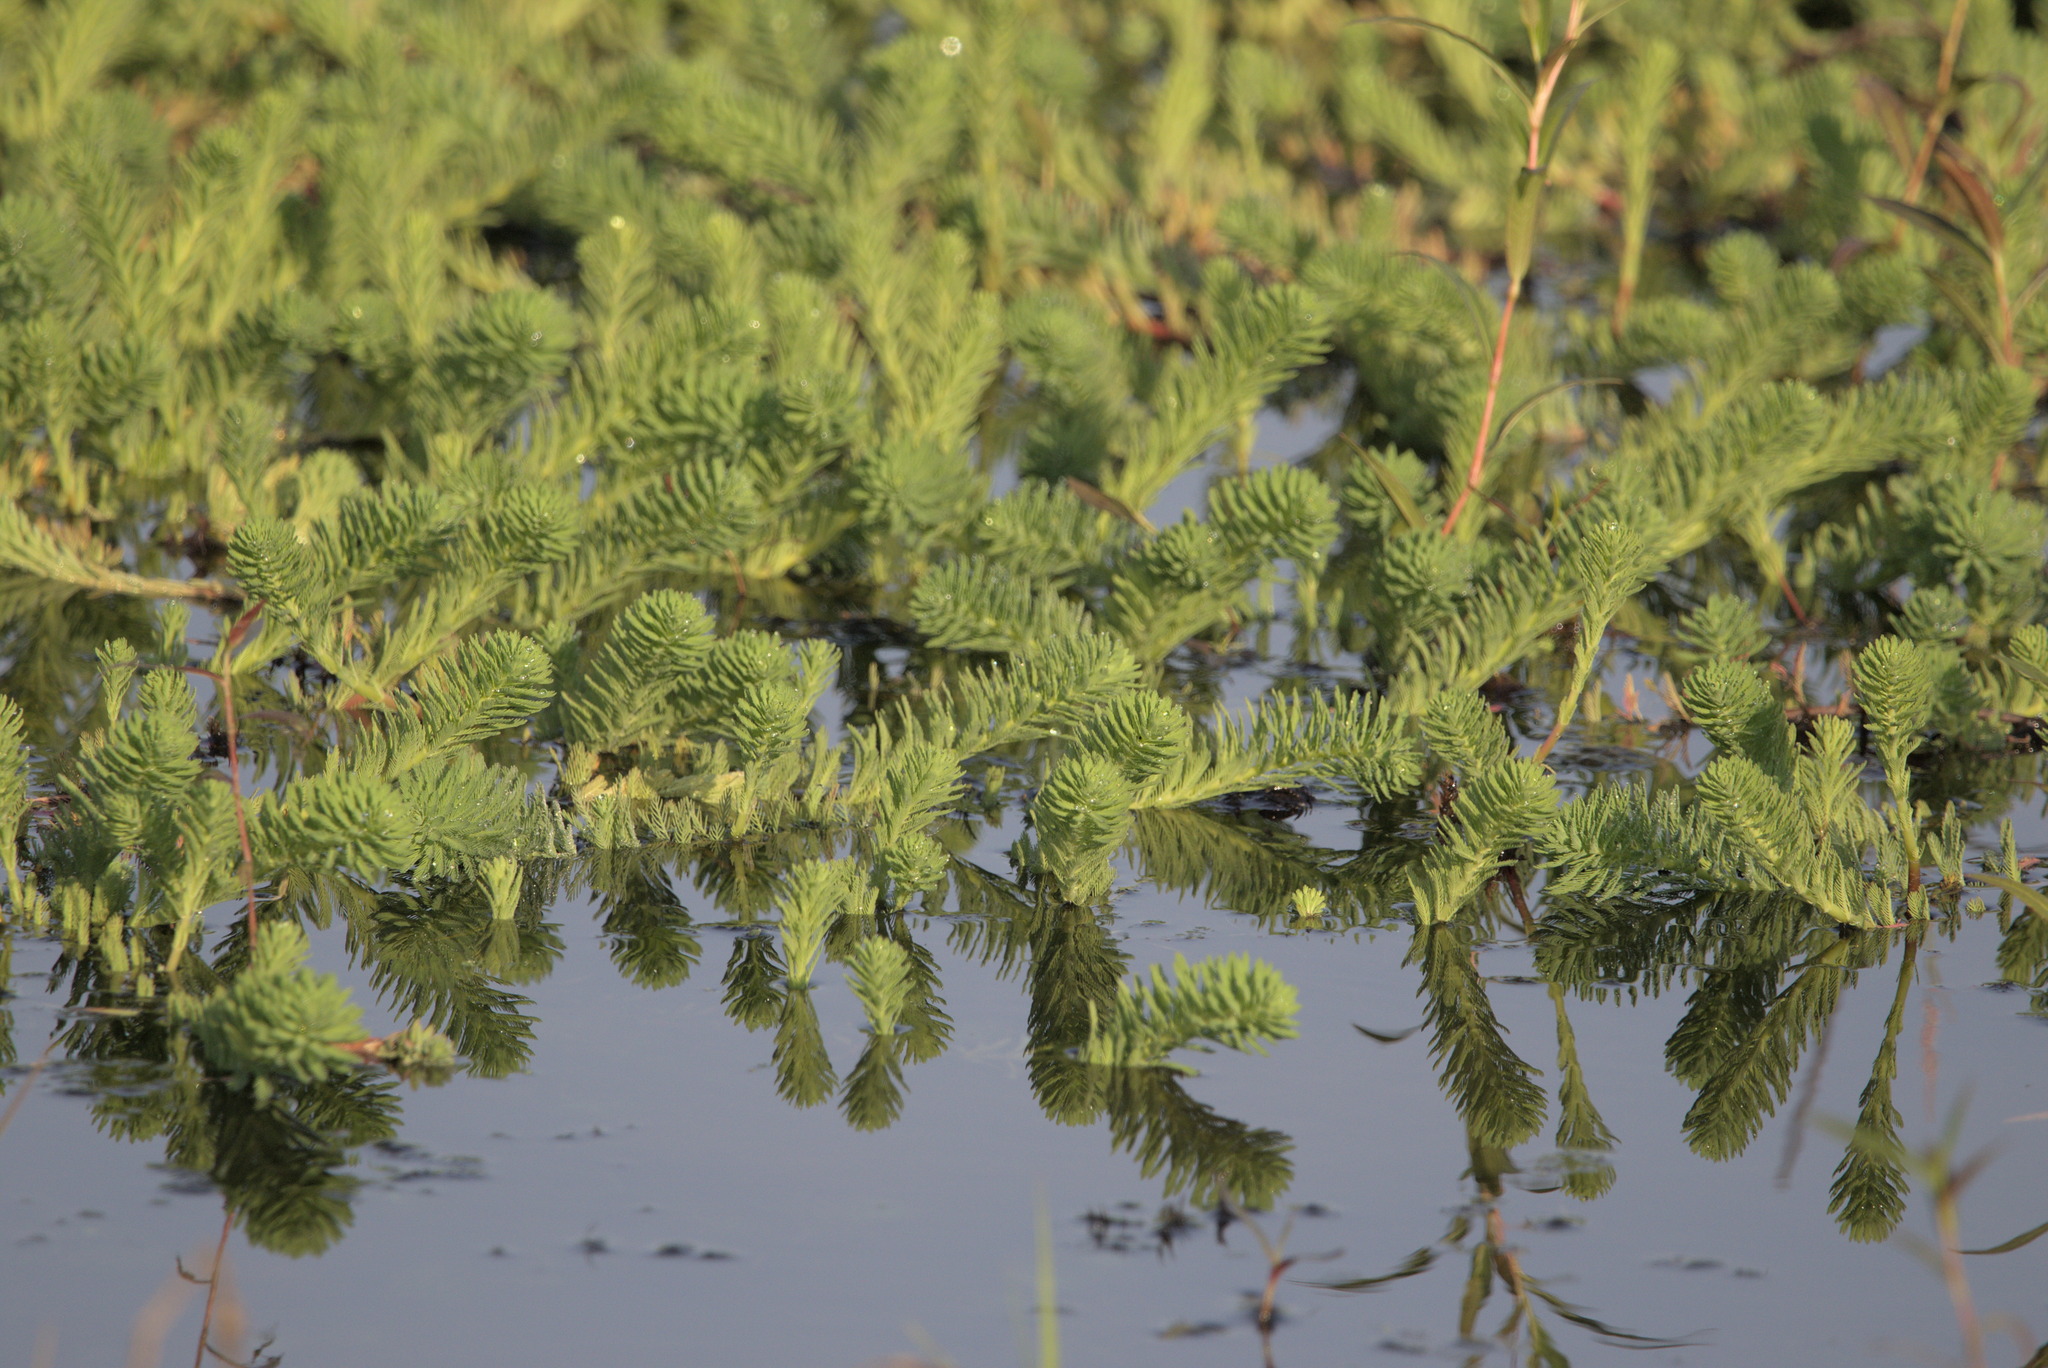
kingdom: Plantae
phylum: Tracheophyta
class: Magnoliopsida
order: Saxifragales
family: Haloragaceae
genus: Myriophyllum
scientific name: Myriophyllum aquaticum
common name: Parrot's feather
